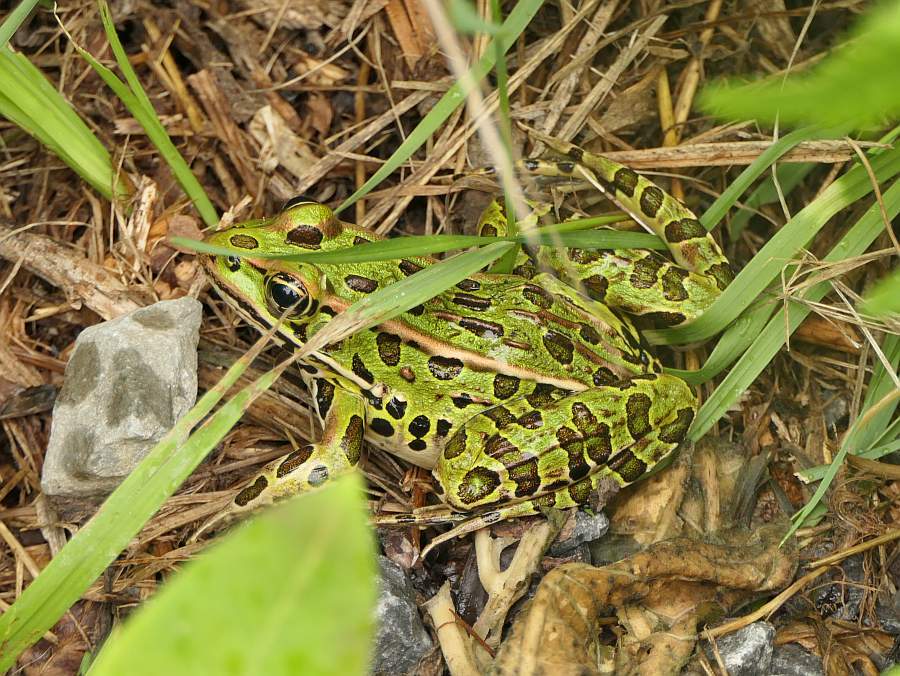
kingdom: Animalia
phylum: Chordata
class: Amphibia
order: Anura
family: Ranidae
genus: Lithobates
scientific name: Lithobates pipiens
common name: Northern leopard frog
